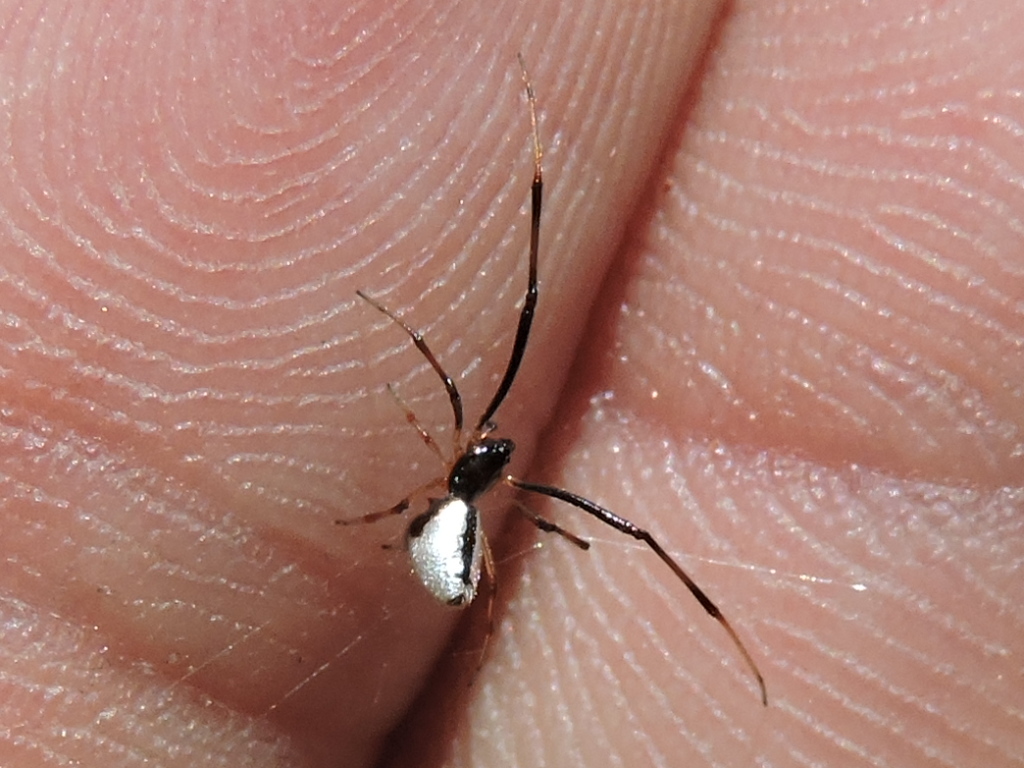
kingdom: Animalia
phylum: Arthropoda
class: Arachnida
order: Araneae
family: Theridiidae
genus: Argyrodes
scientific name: Argyrodes elevatus
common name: Cobweb spiders
